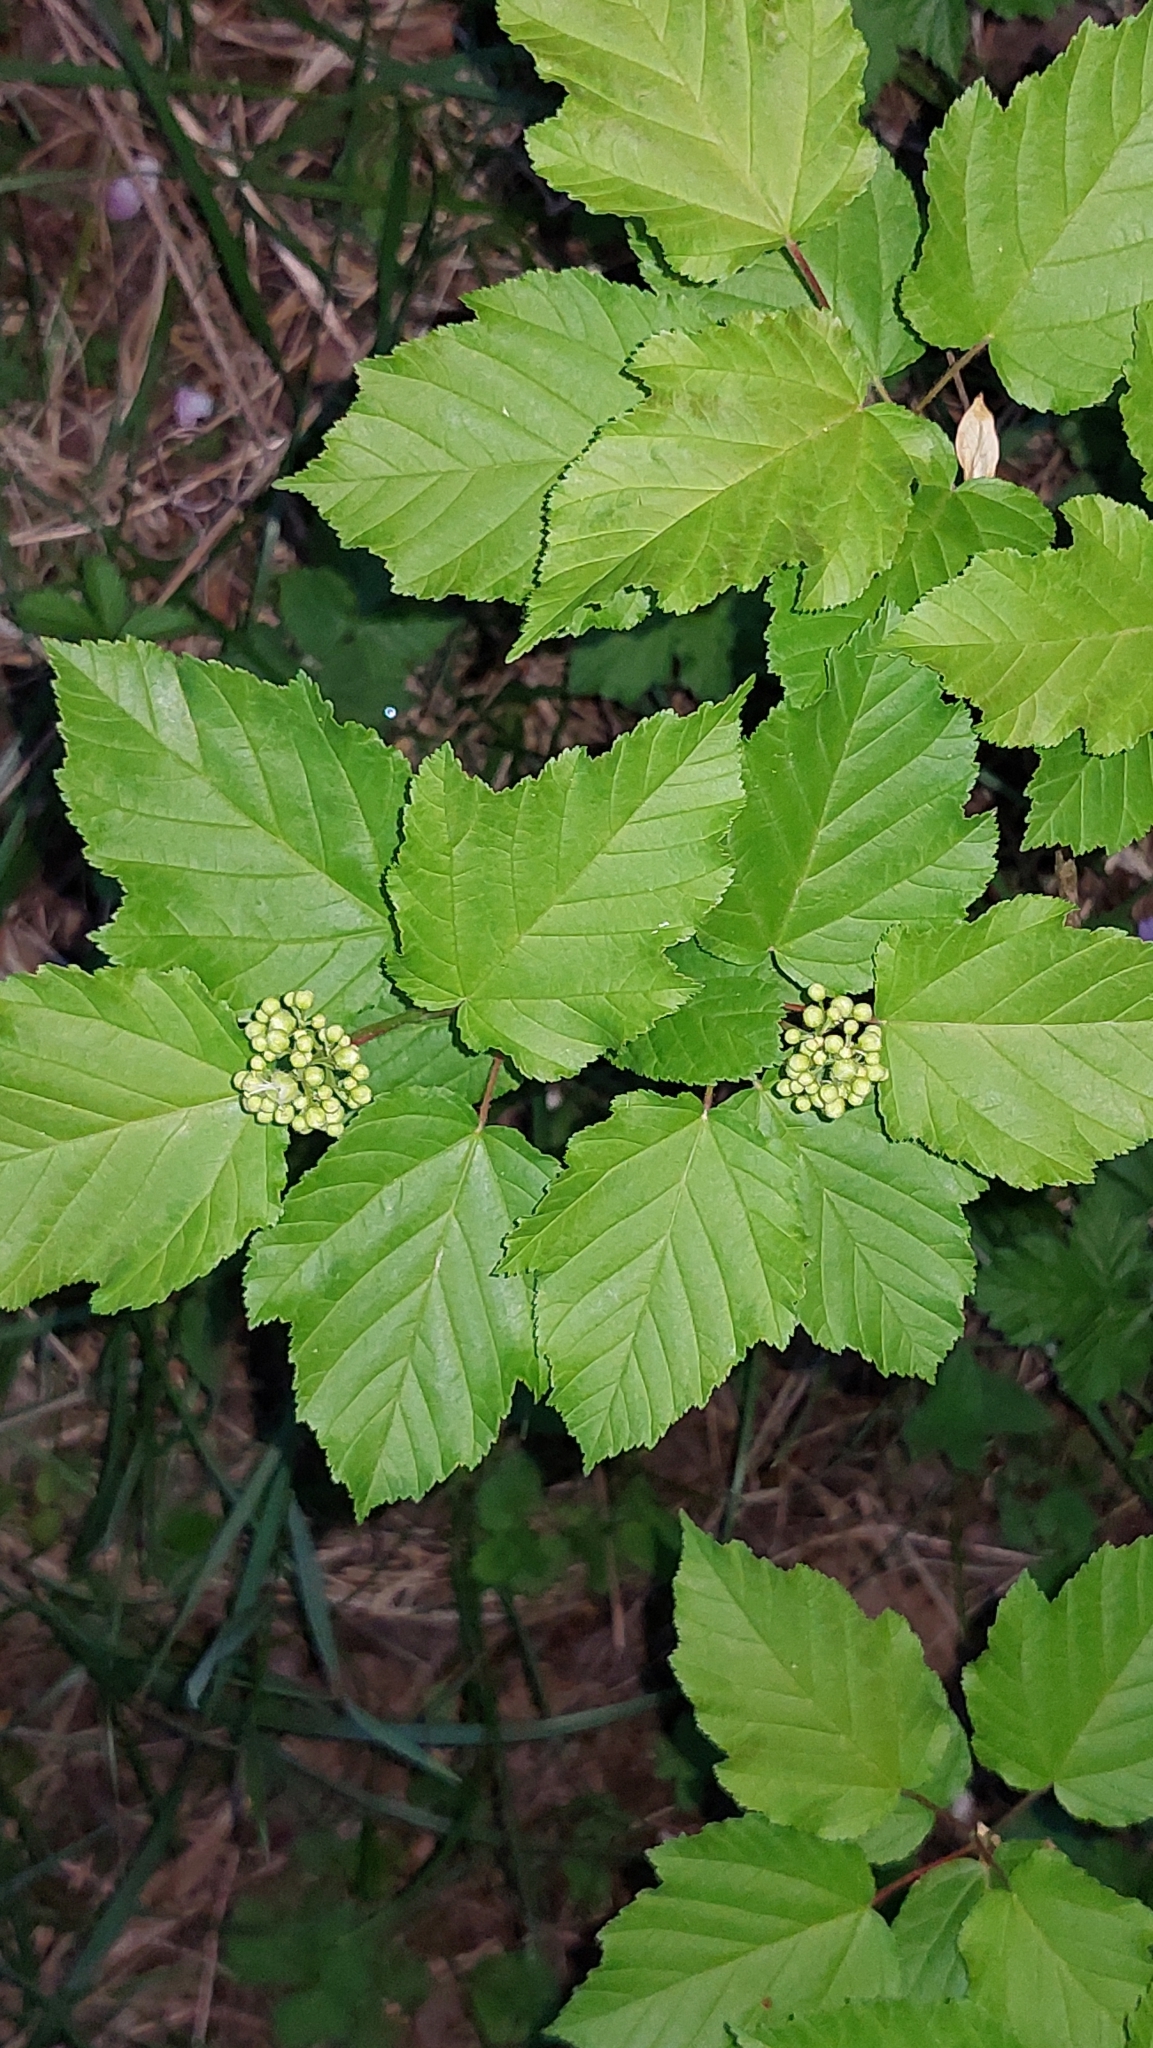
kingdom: Plantae
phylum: Tracheophyta
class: Magnoliopsida
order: Sapindales
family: Sapindaceae
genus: Acer
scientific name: Acer tataricum
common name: Tartar maple
